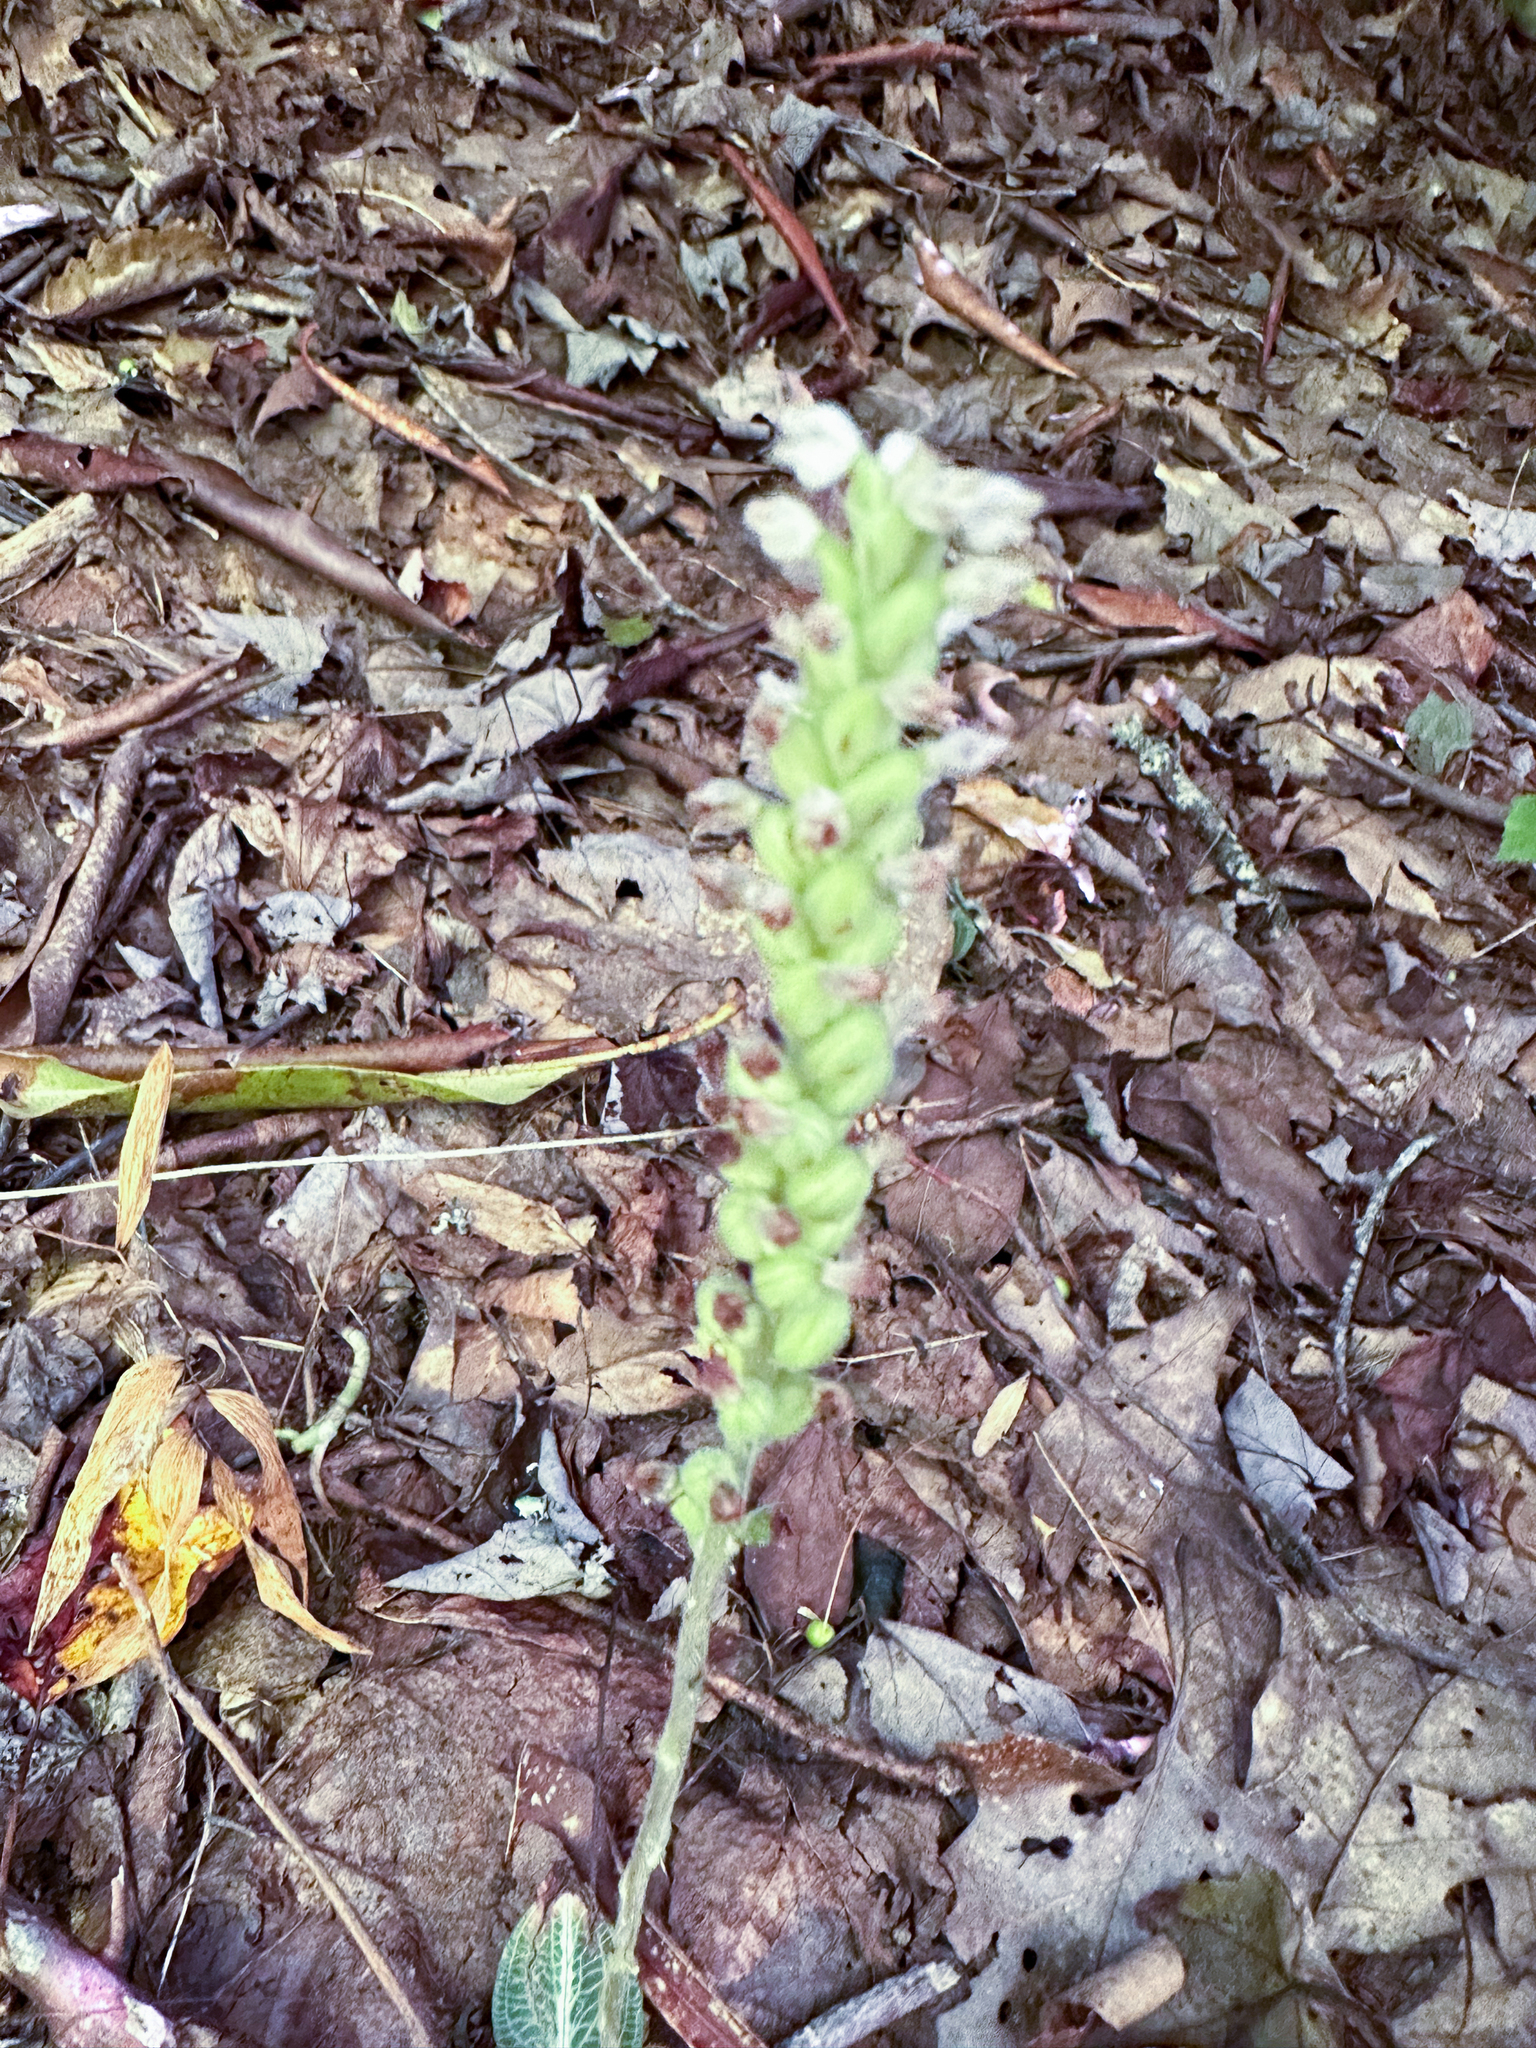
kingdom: Plantae
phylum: Tracheophyta
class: Liliopsida
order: Asparagales
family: Orchidaceae
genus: Goodyera
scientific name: Goodyera pubescens
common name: Downy rattlesnake-plantain
